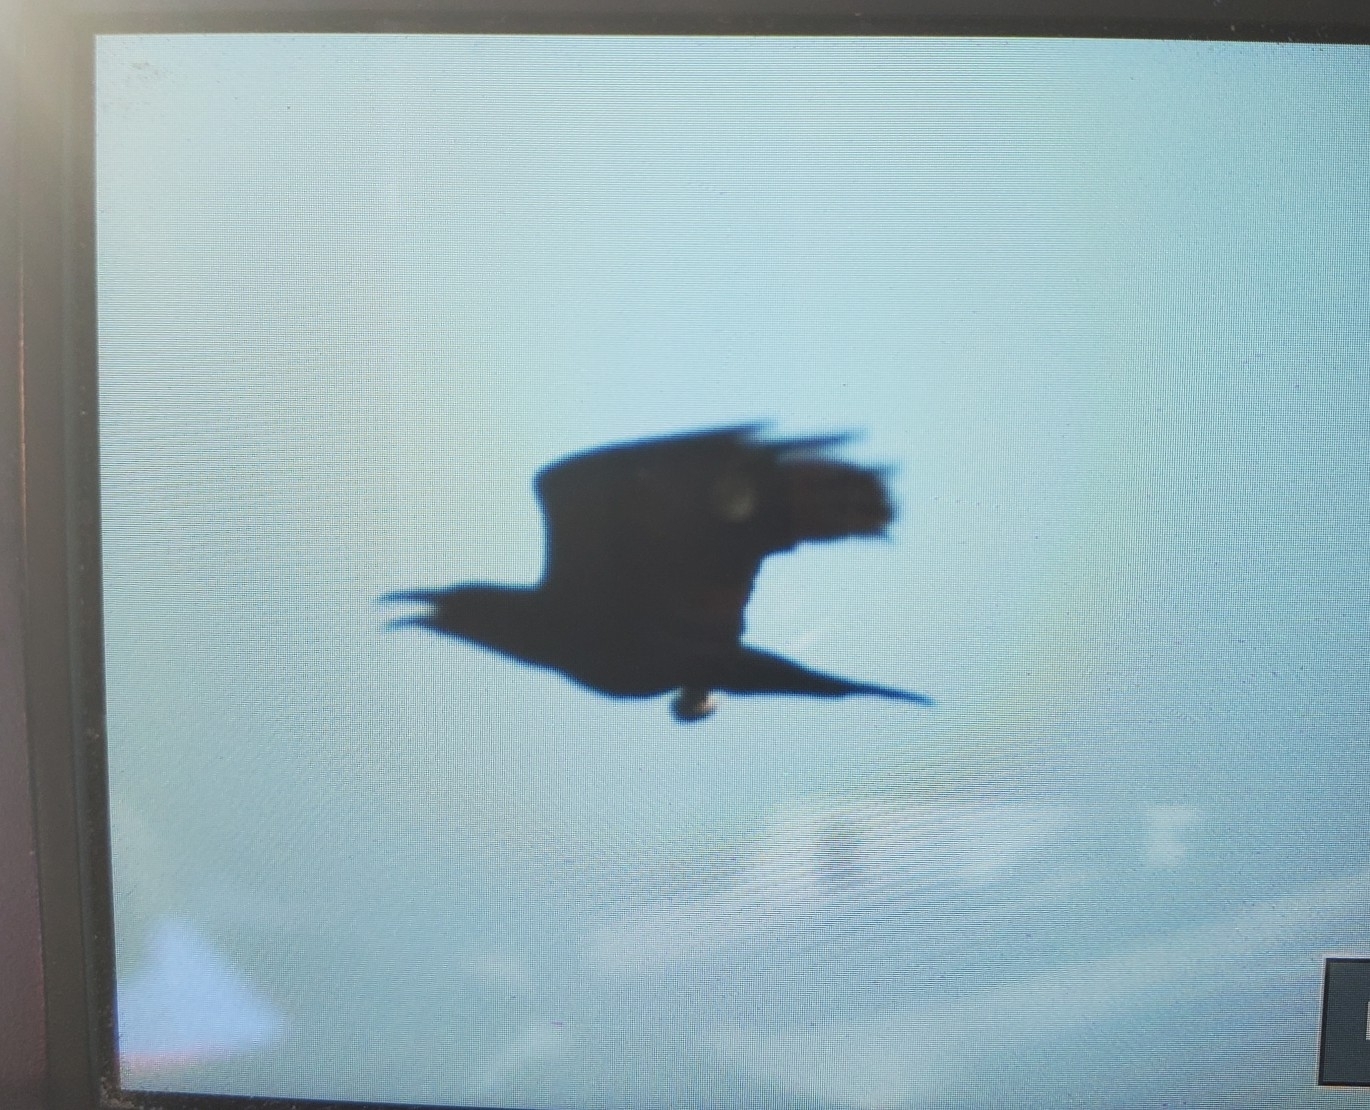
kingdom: Animalia
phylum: Chordata
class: Aves
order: Passeriformes
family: Corvidae
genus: Corvus
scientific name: Corvus corax
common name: Common raven
